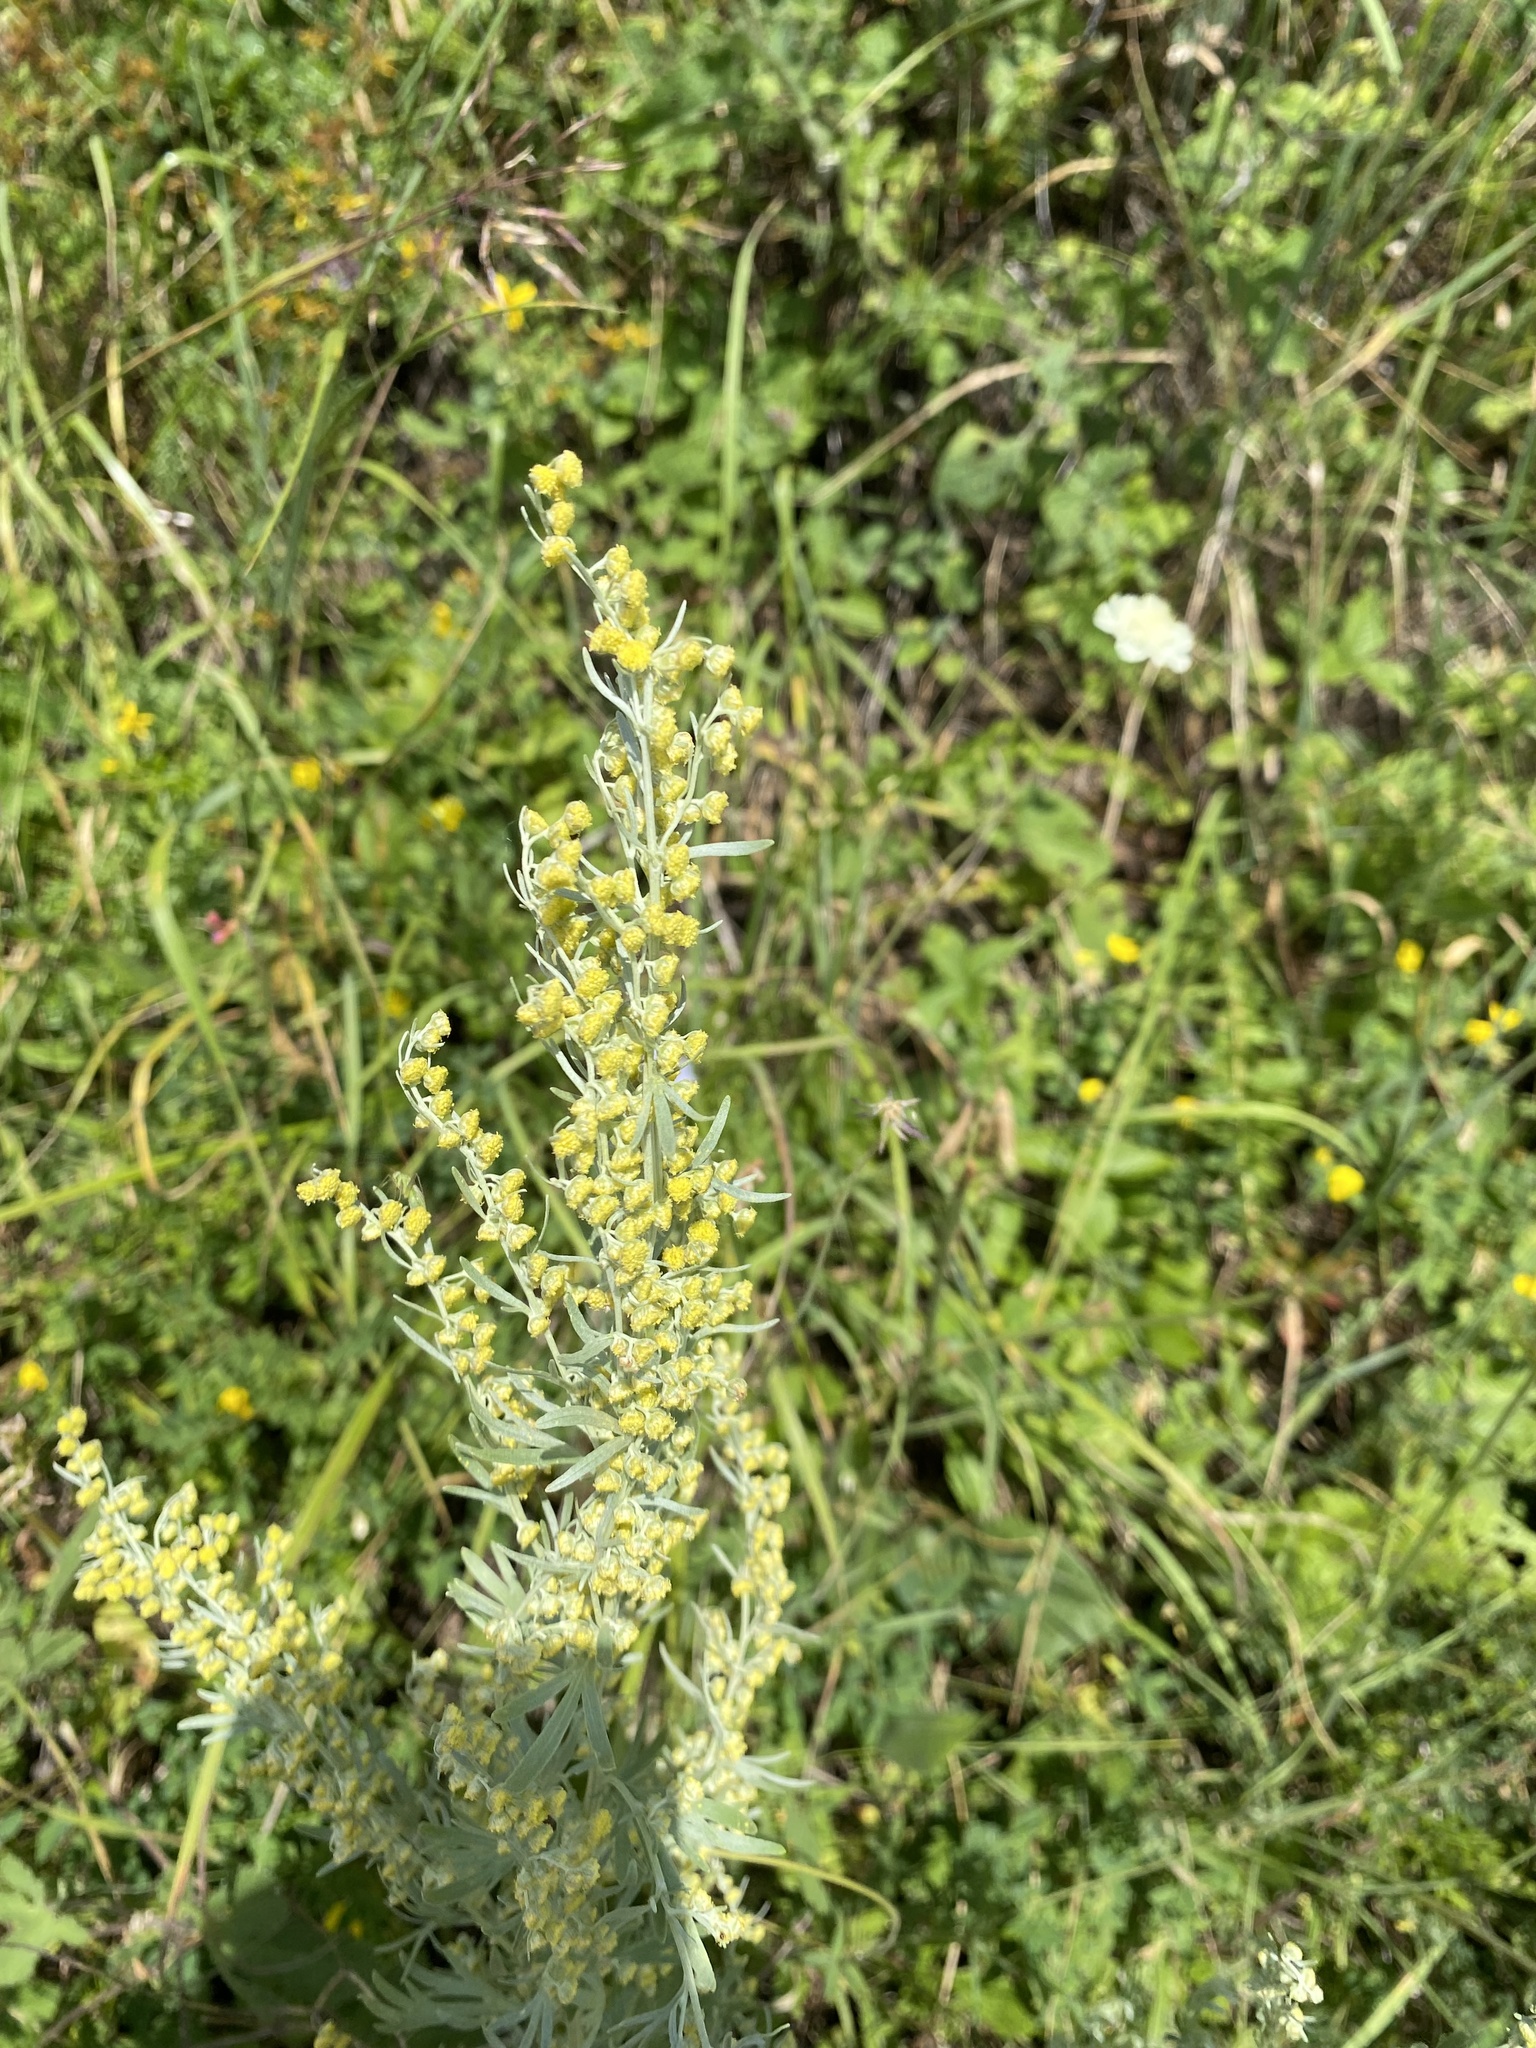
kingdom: Plantae
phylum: Tracheophyta
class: Magnoliopsida
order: Asterales
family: Asteraceae
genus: Artemisia
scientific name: Artemisia absinthium
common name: Wormwood
